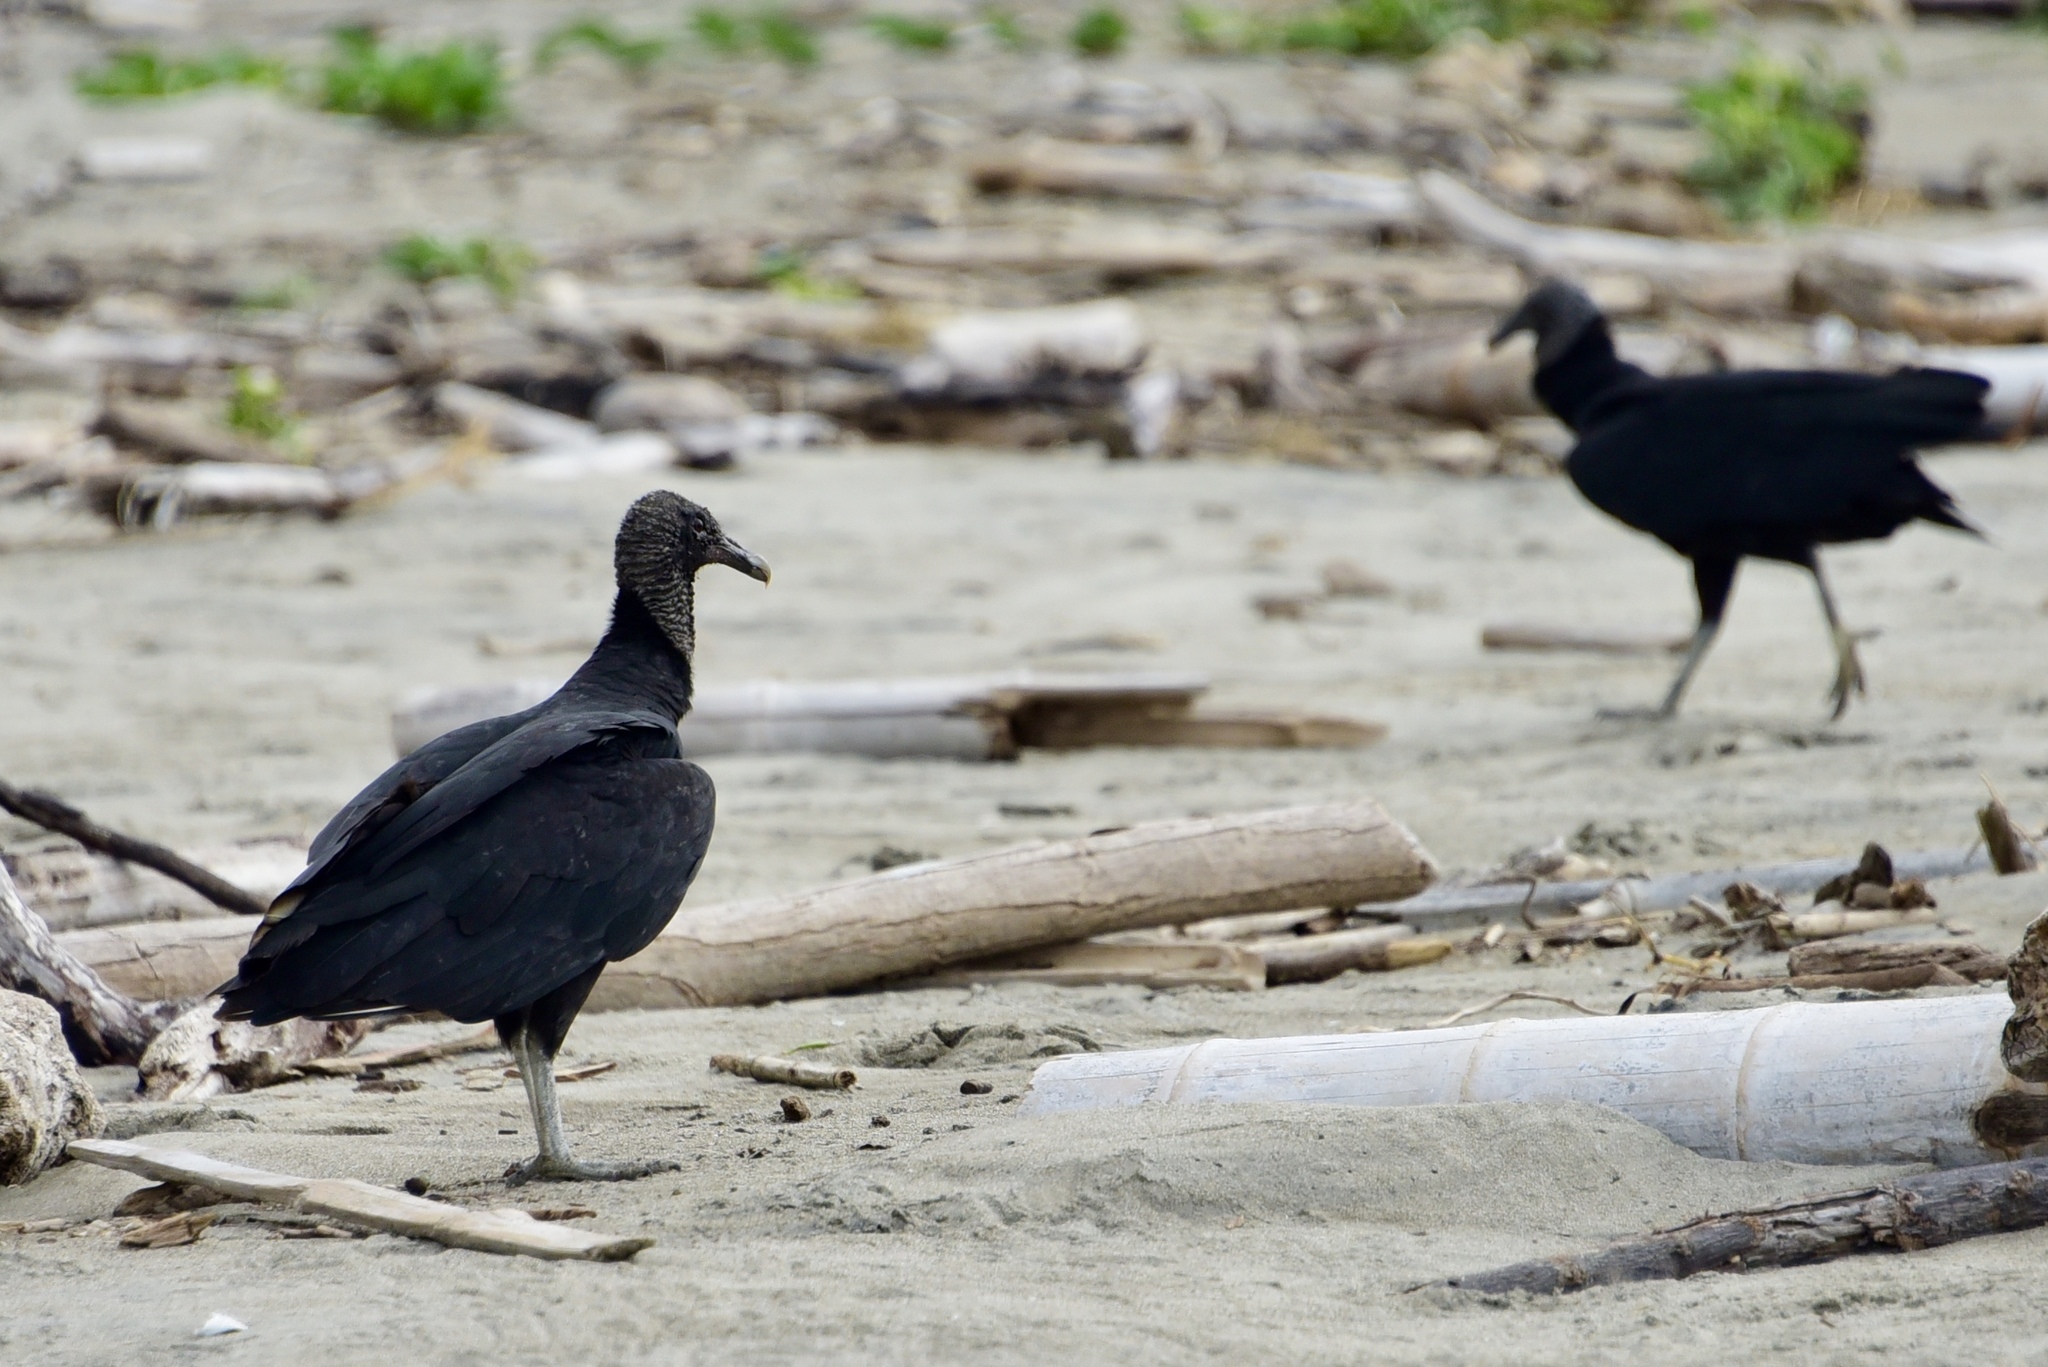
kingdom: Animalia
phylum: Chordata
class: Aves
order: Accipitriformes
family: Cathartidae
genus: Coragyps
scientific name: Coragyps atratus
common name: Black vulture
